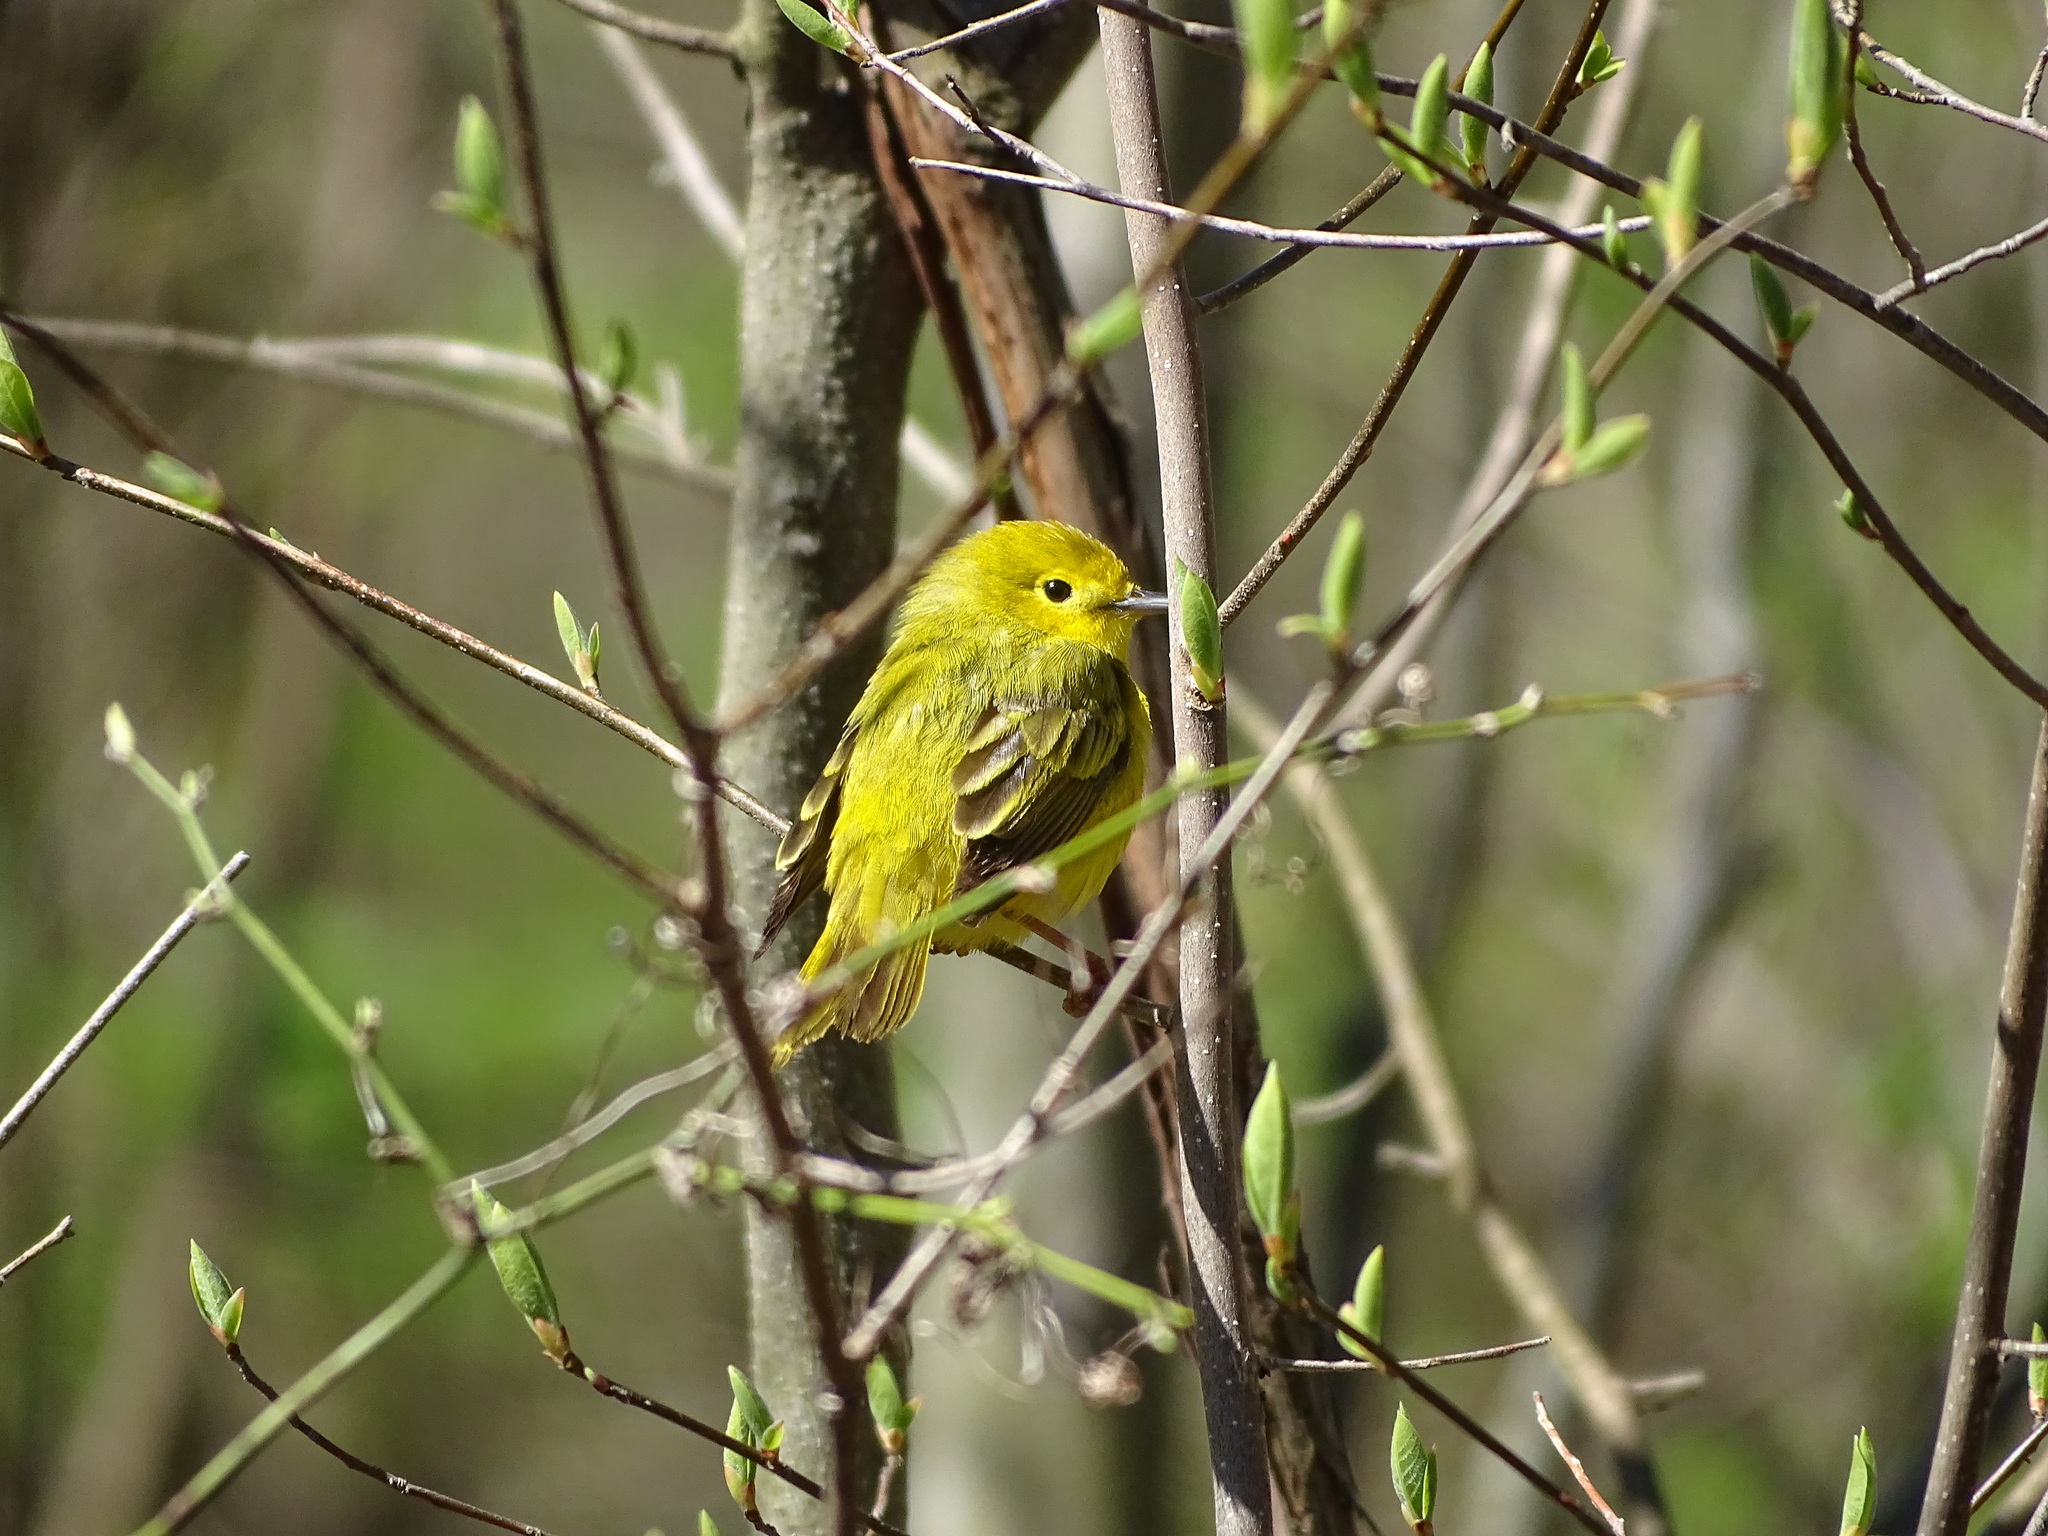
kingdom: Animalia
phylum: Chordata
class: Aves
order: Passeriformes
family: Parulidae
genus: Setophaga
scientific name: Setophaga petechia
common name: Yellow warbler
